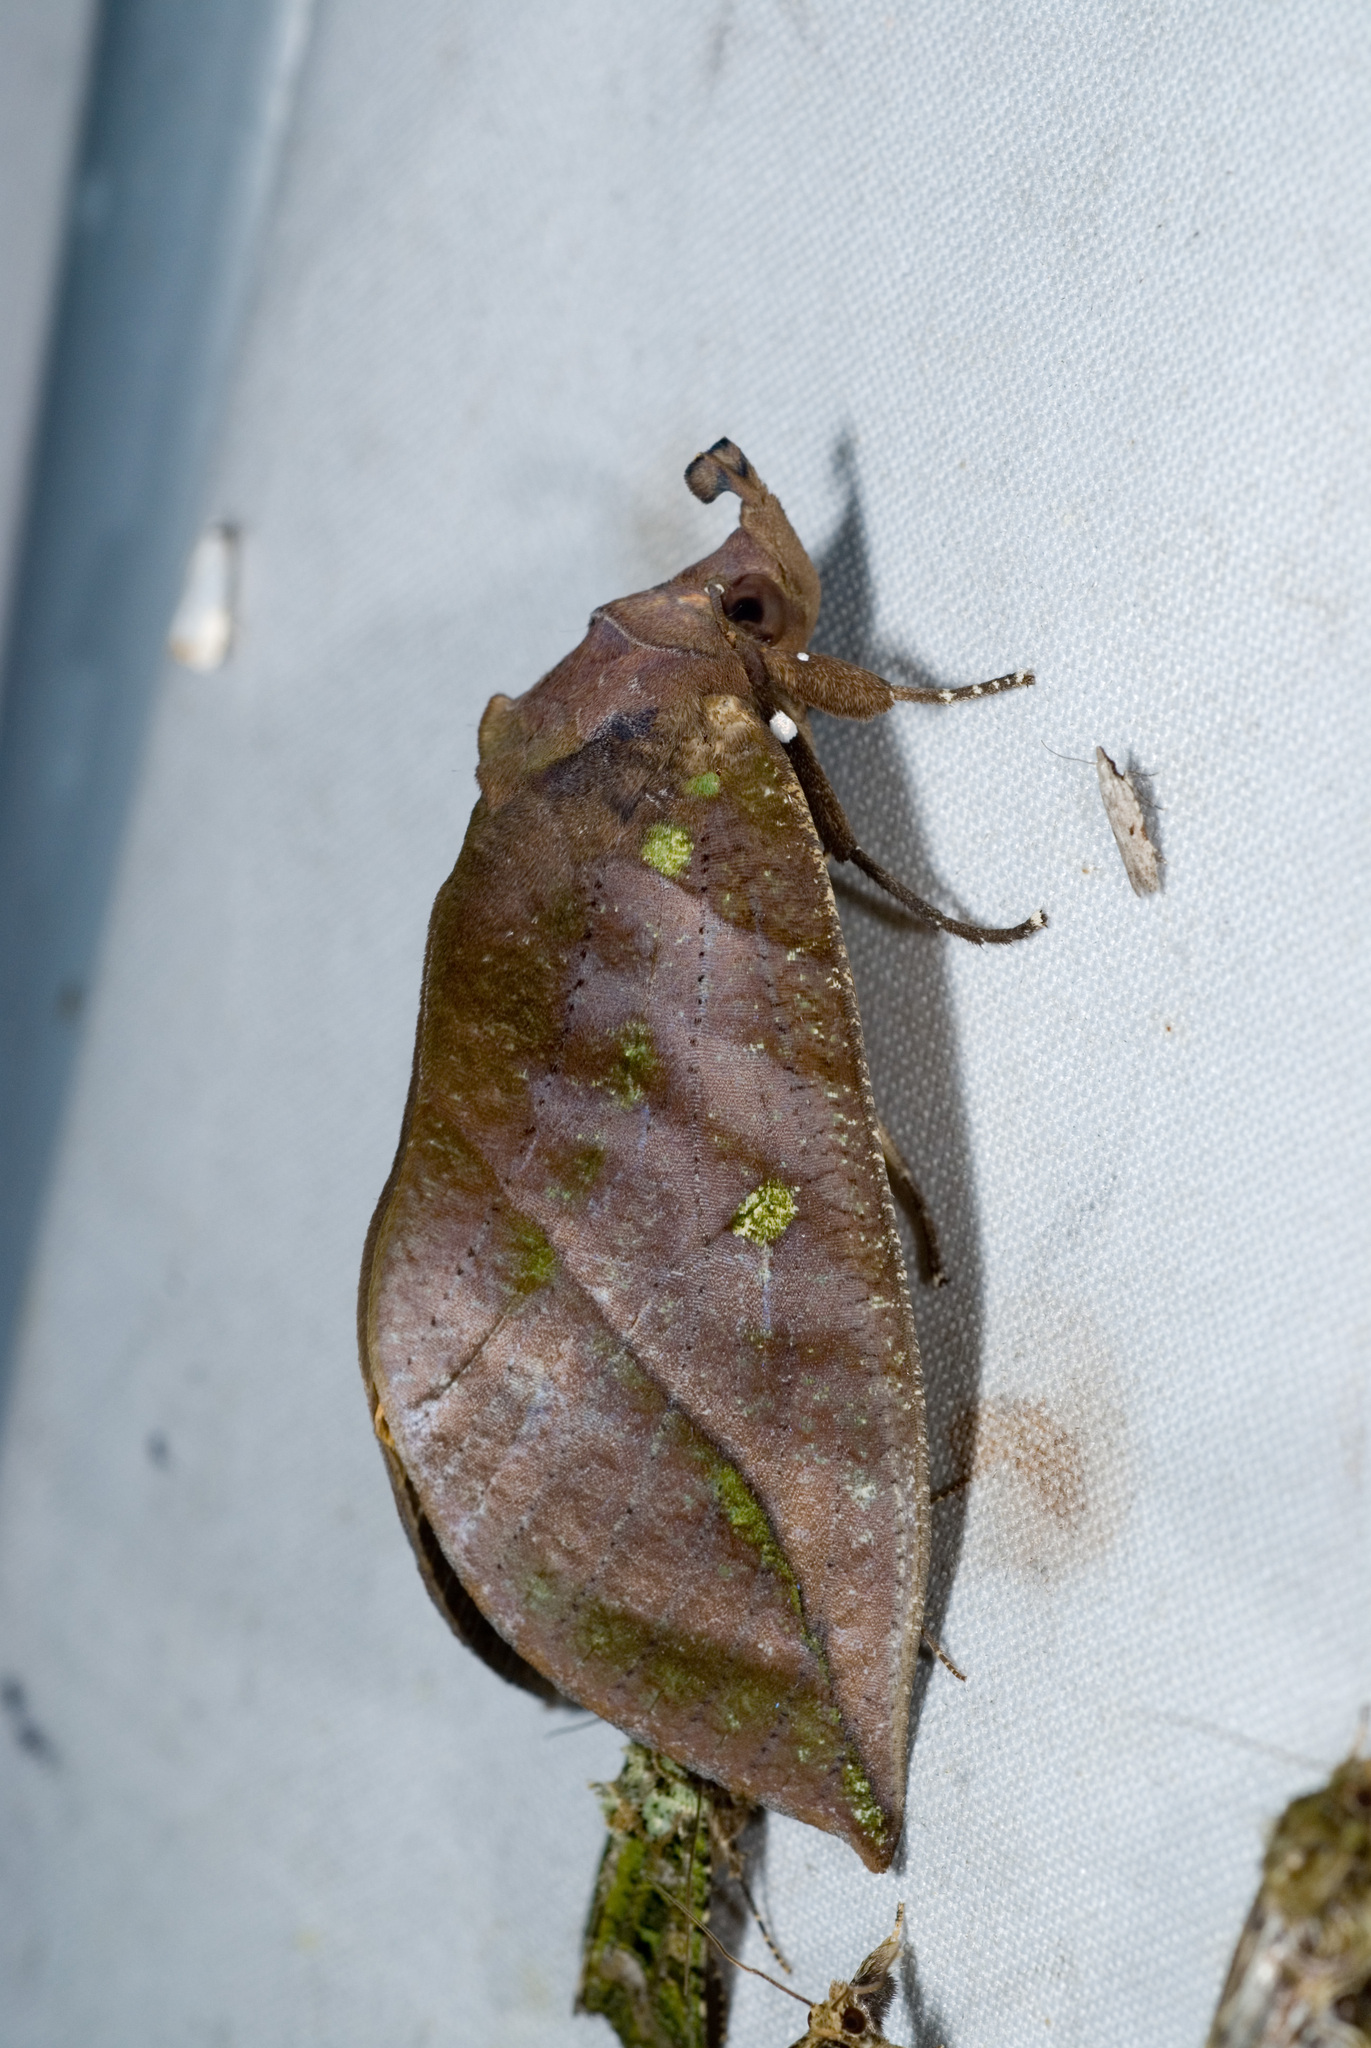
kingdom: Animalia
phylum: Arthropoda
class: Insecta
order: Lepidoptera
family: Erebidae
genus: Eudocima
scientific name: Eudocima okurai
